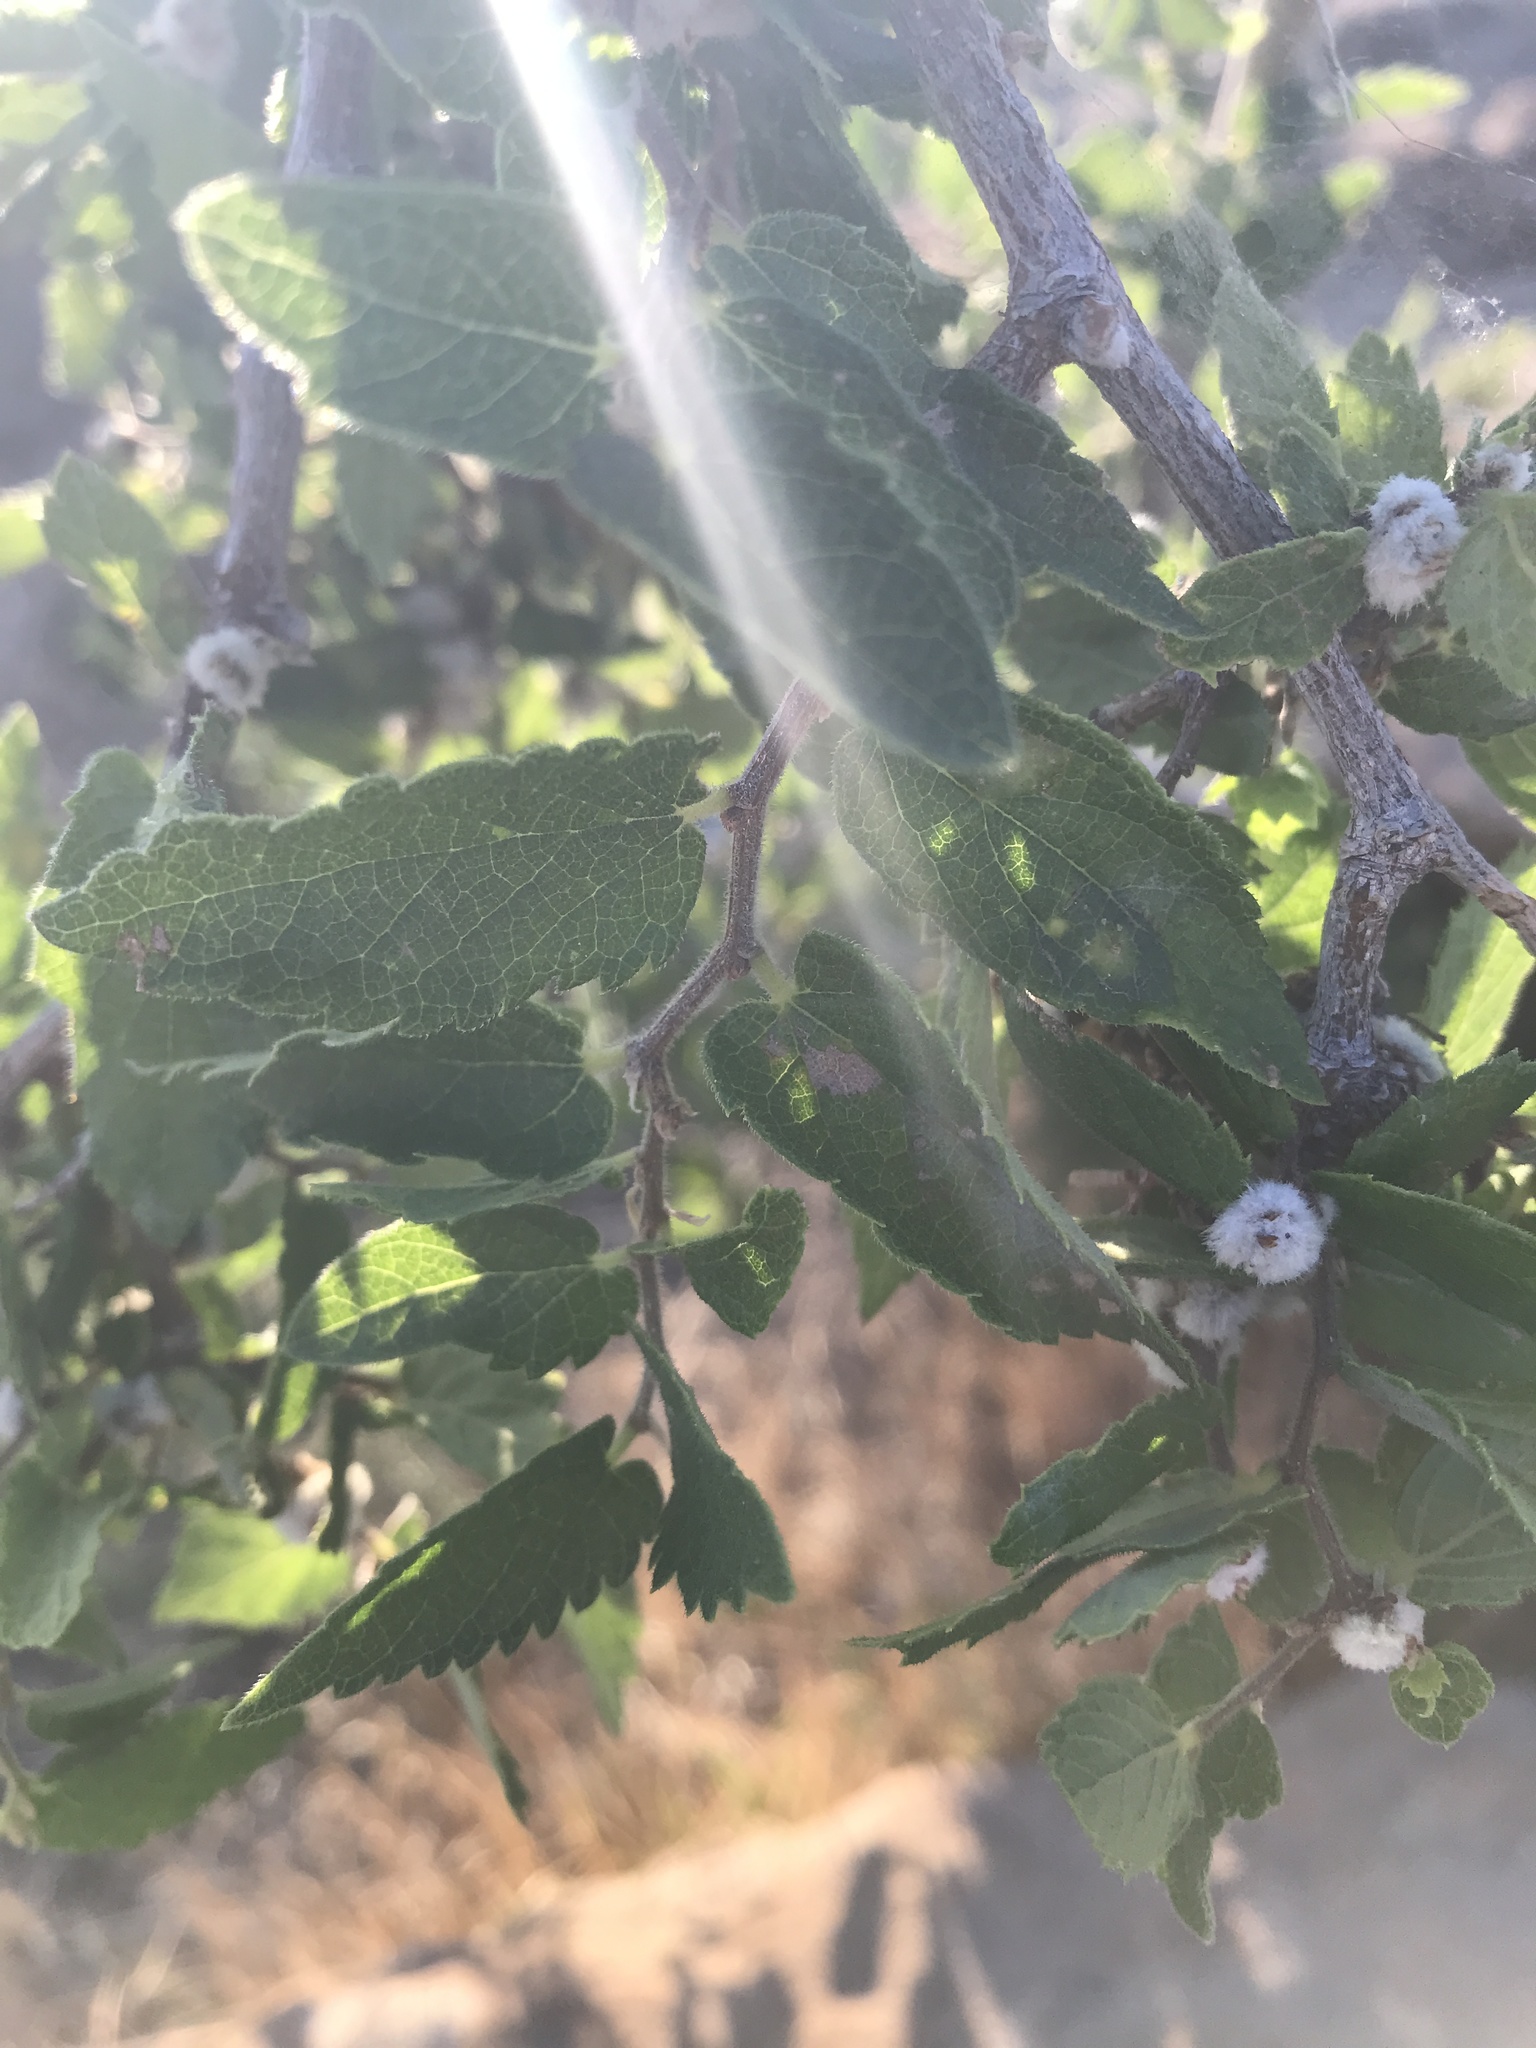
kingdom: Plantae
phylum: Tracheophyta
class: Magnoliopsida
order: Rosales
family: Cannabaceae
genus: Celtis
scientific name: Celtis reticulata
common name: Netleaf hackberry
